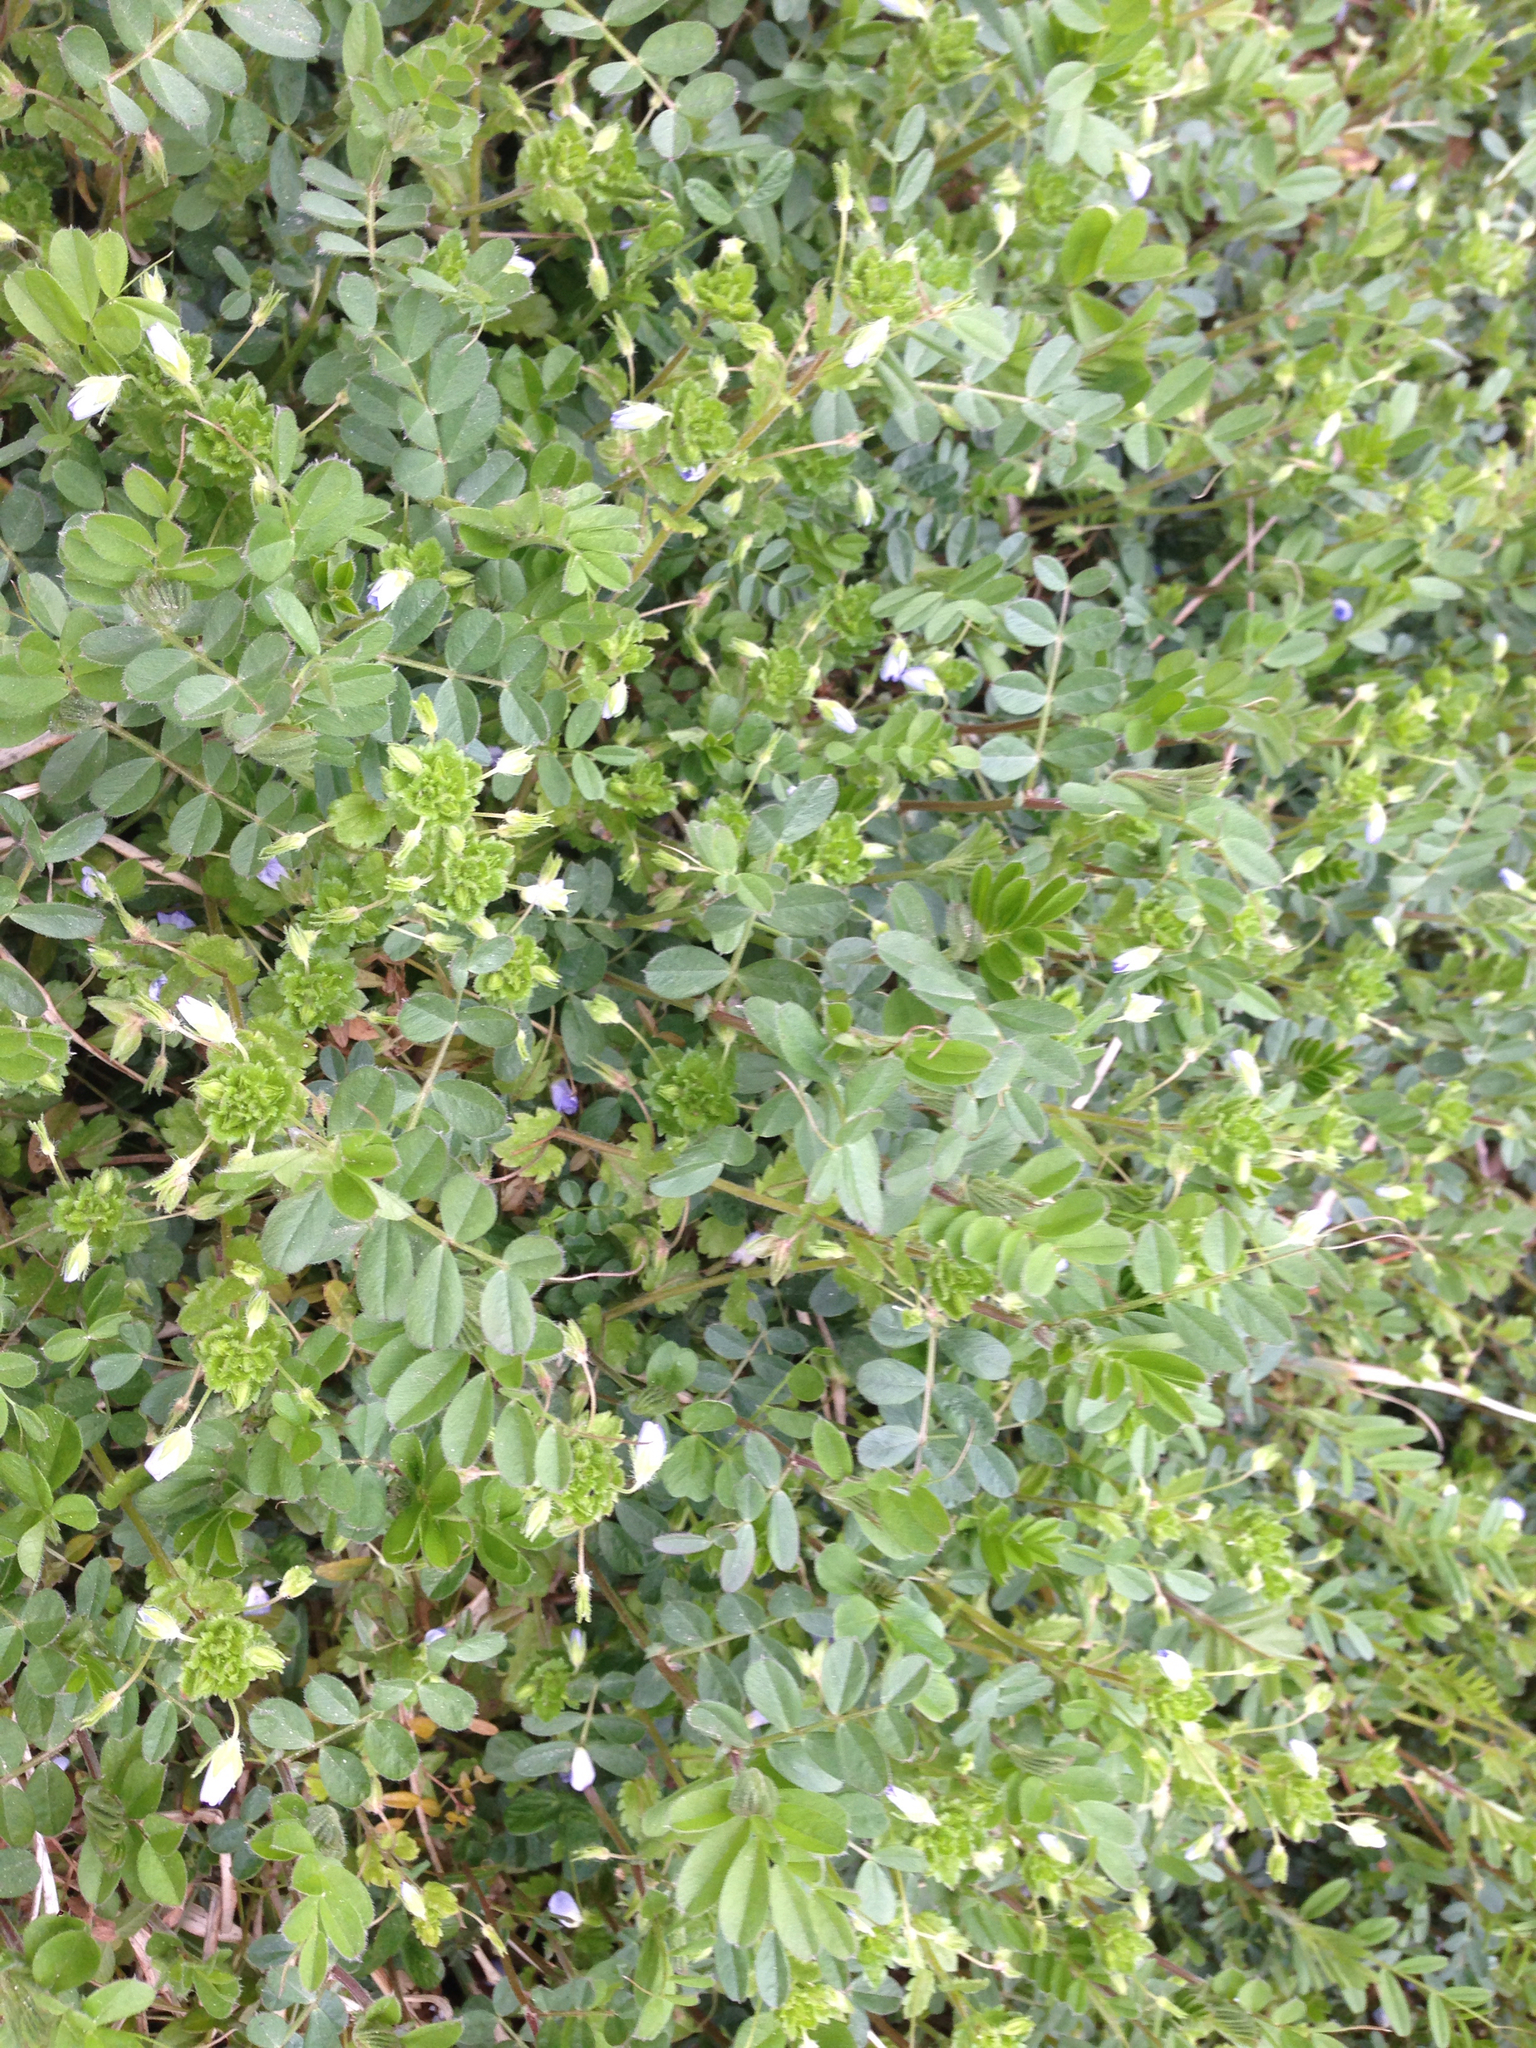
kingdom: Plantae
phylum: Tracheophyta
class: Magnoliopsida
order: Lamiales
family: Plantaginaceae
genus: Veronica
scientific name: Veronica persica
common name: Common field-speedwell
